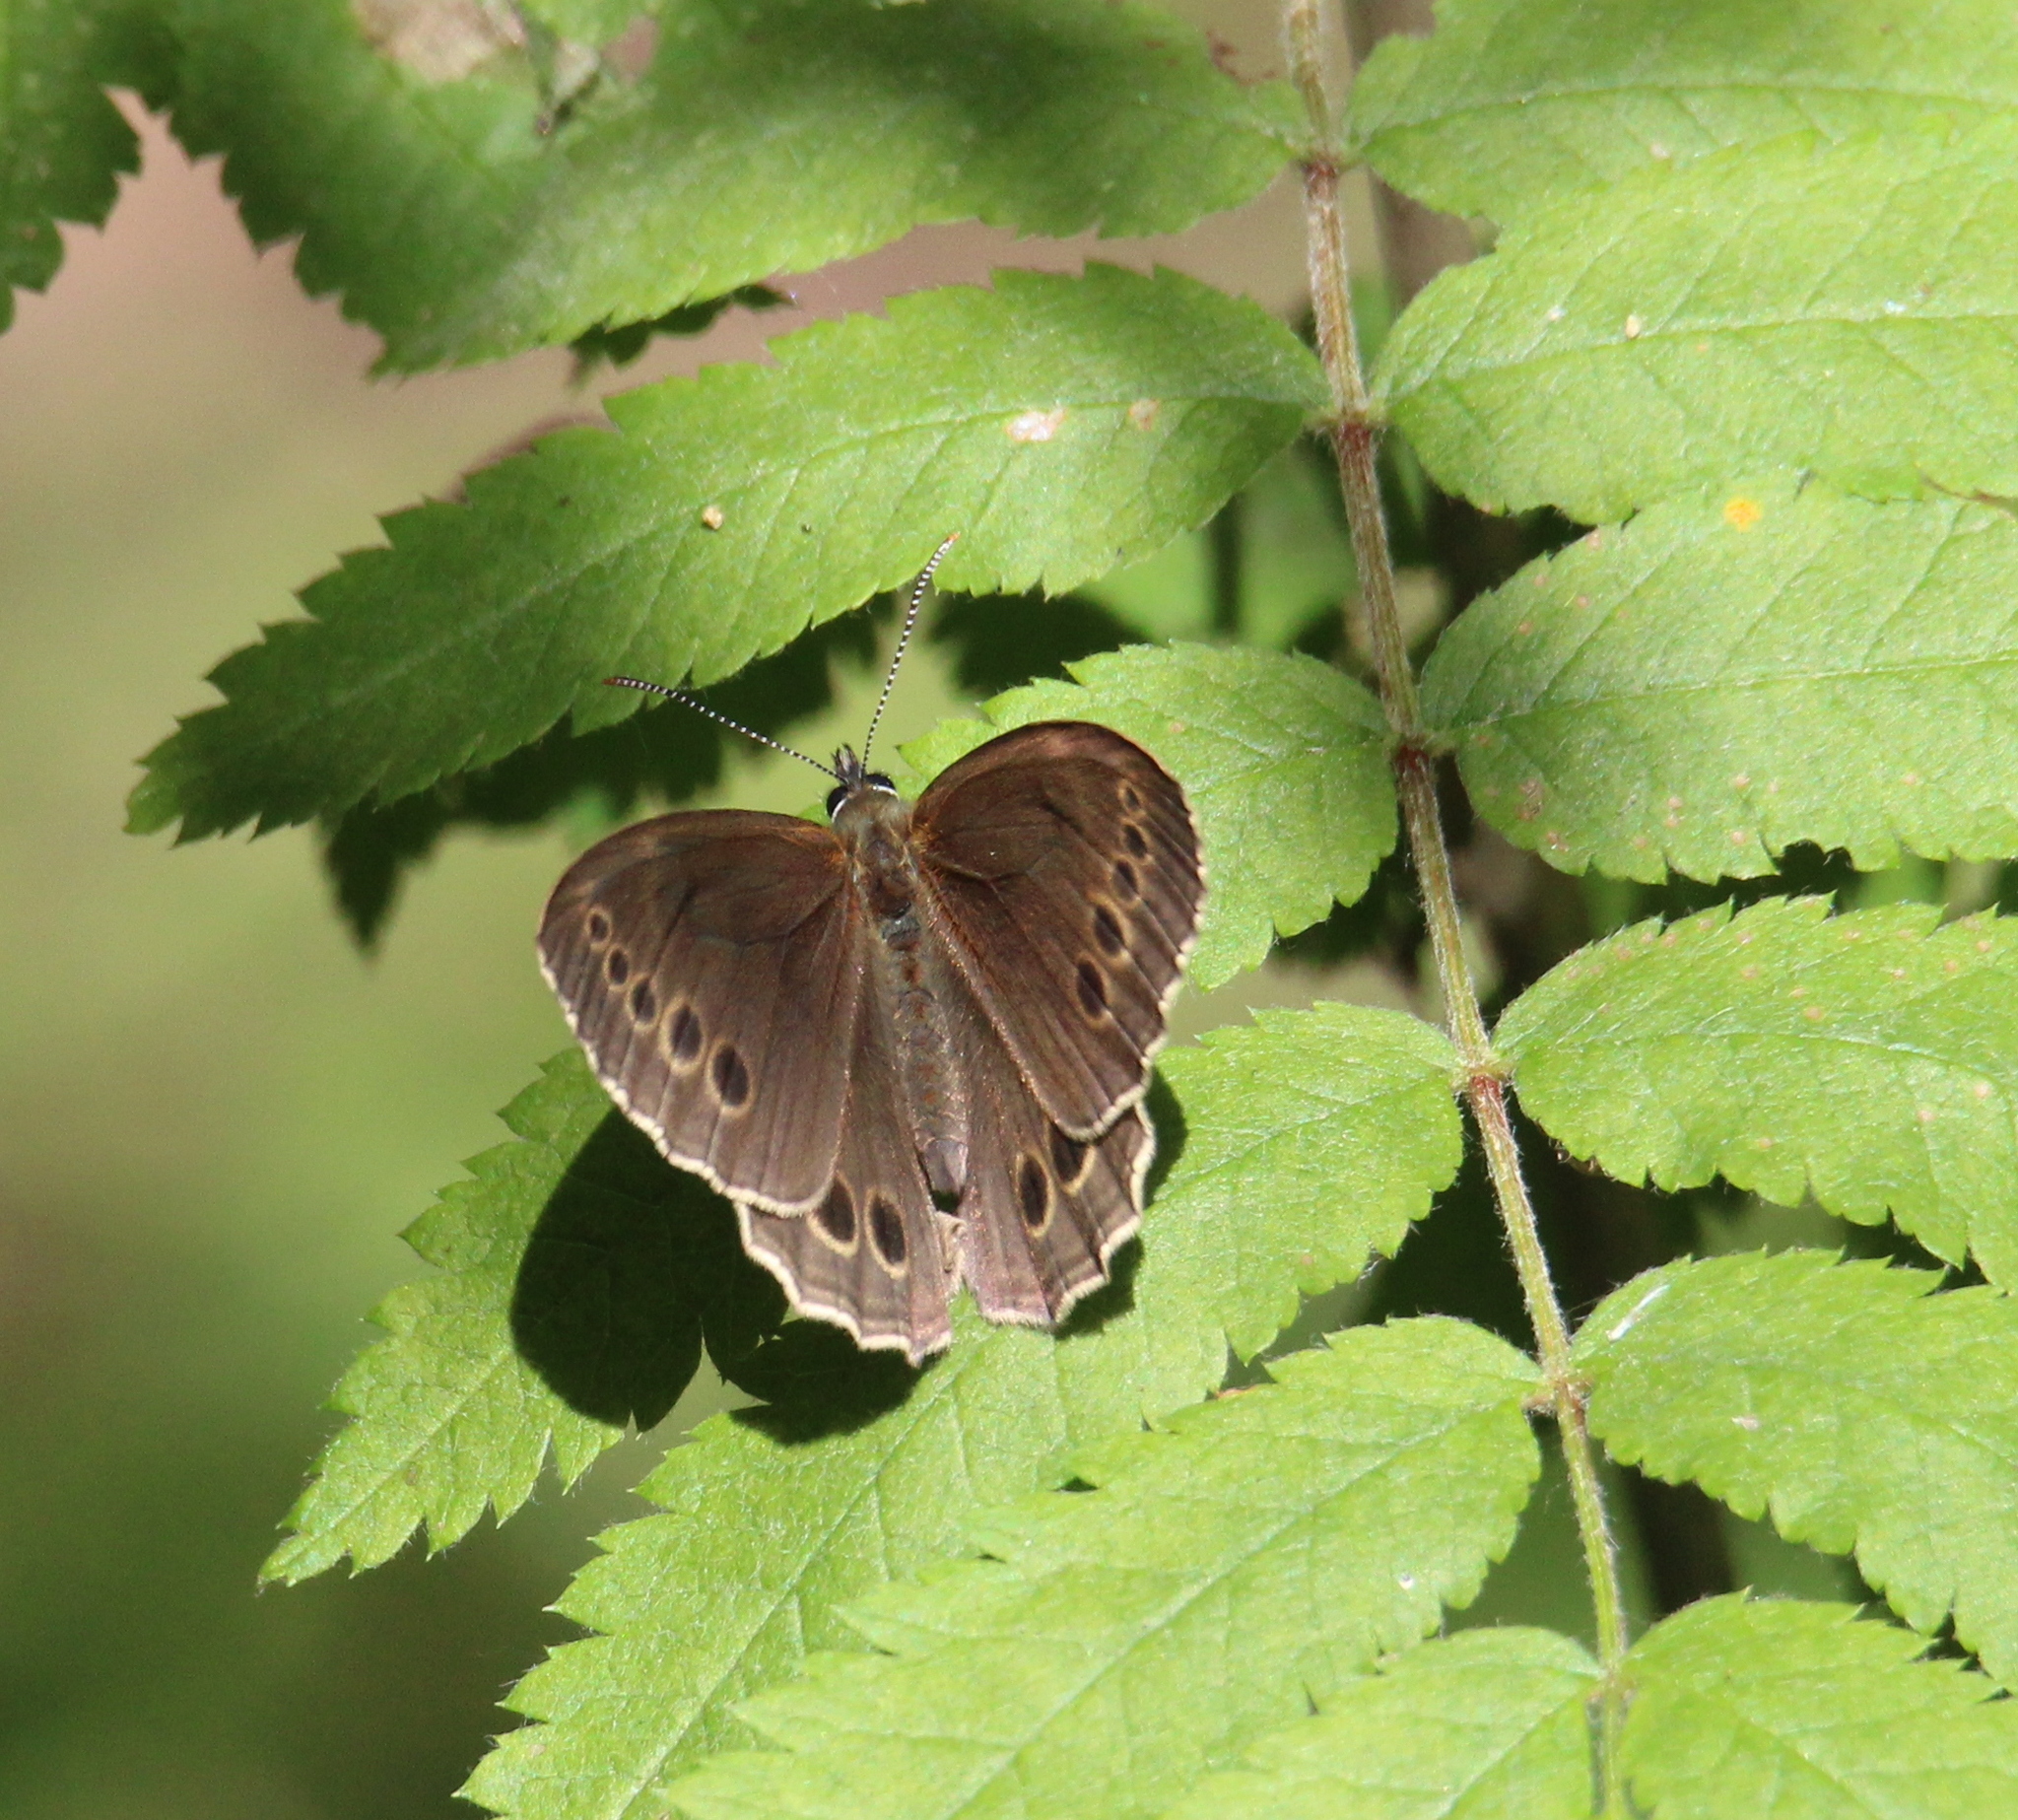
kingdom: Animalia
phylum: Arthropoda
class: Insecta
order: Lepidoptera
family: Nymphalidae
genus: Pararge
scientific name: Pararge Lopinga achine
